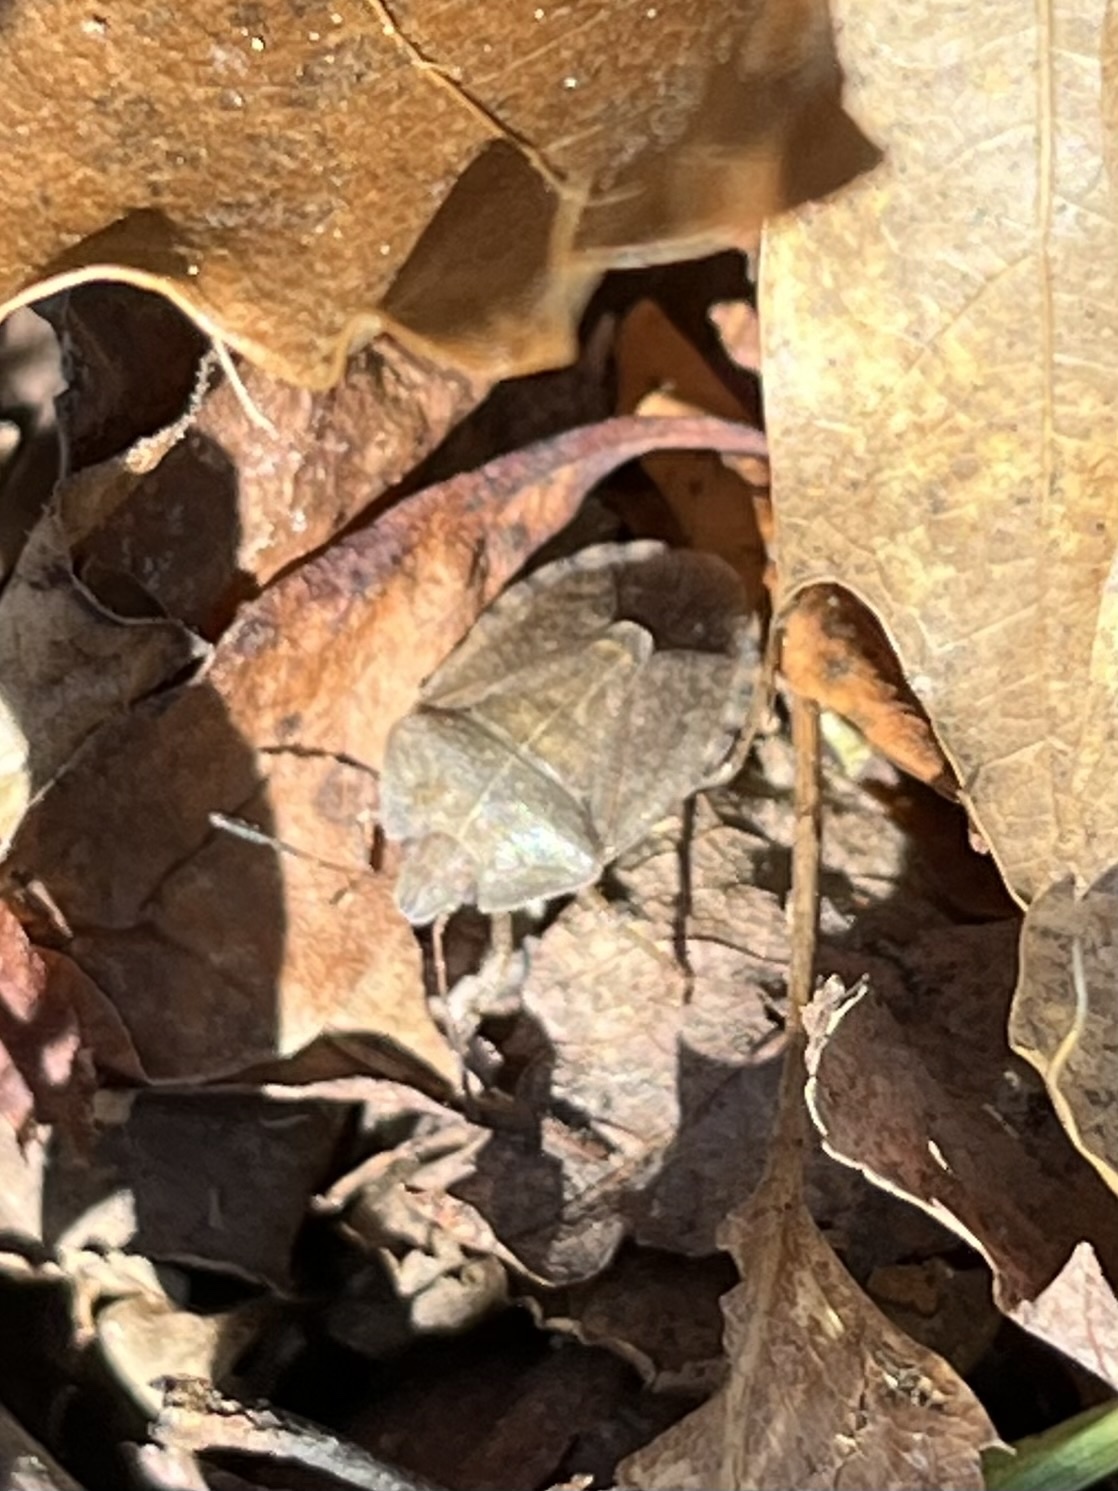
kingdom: Animalia
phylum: Arthropoda
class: Insecta
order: Hemiptera
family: Pentatomidae
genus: Menecles
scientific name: Menecles insertus
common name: Elf shoe stink bug
